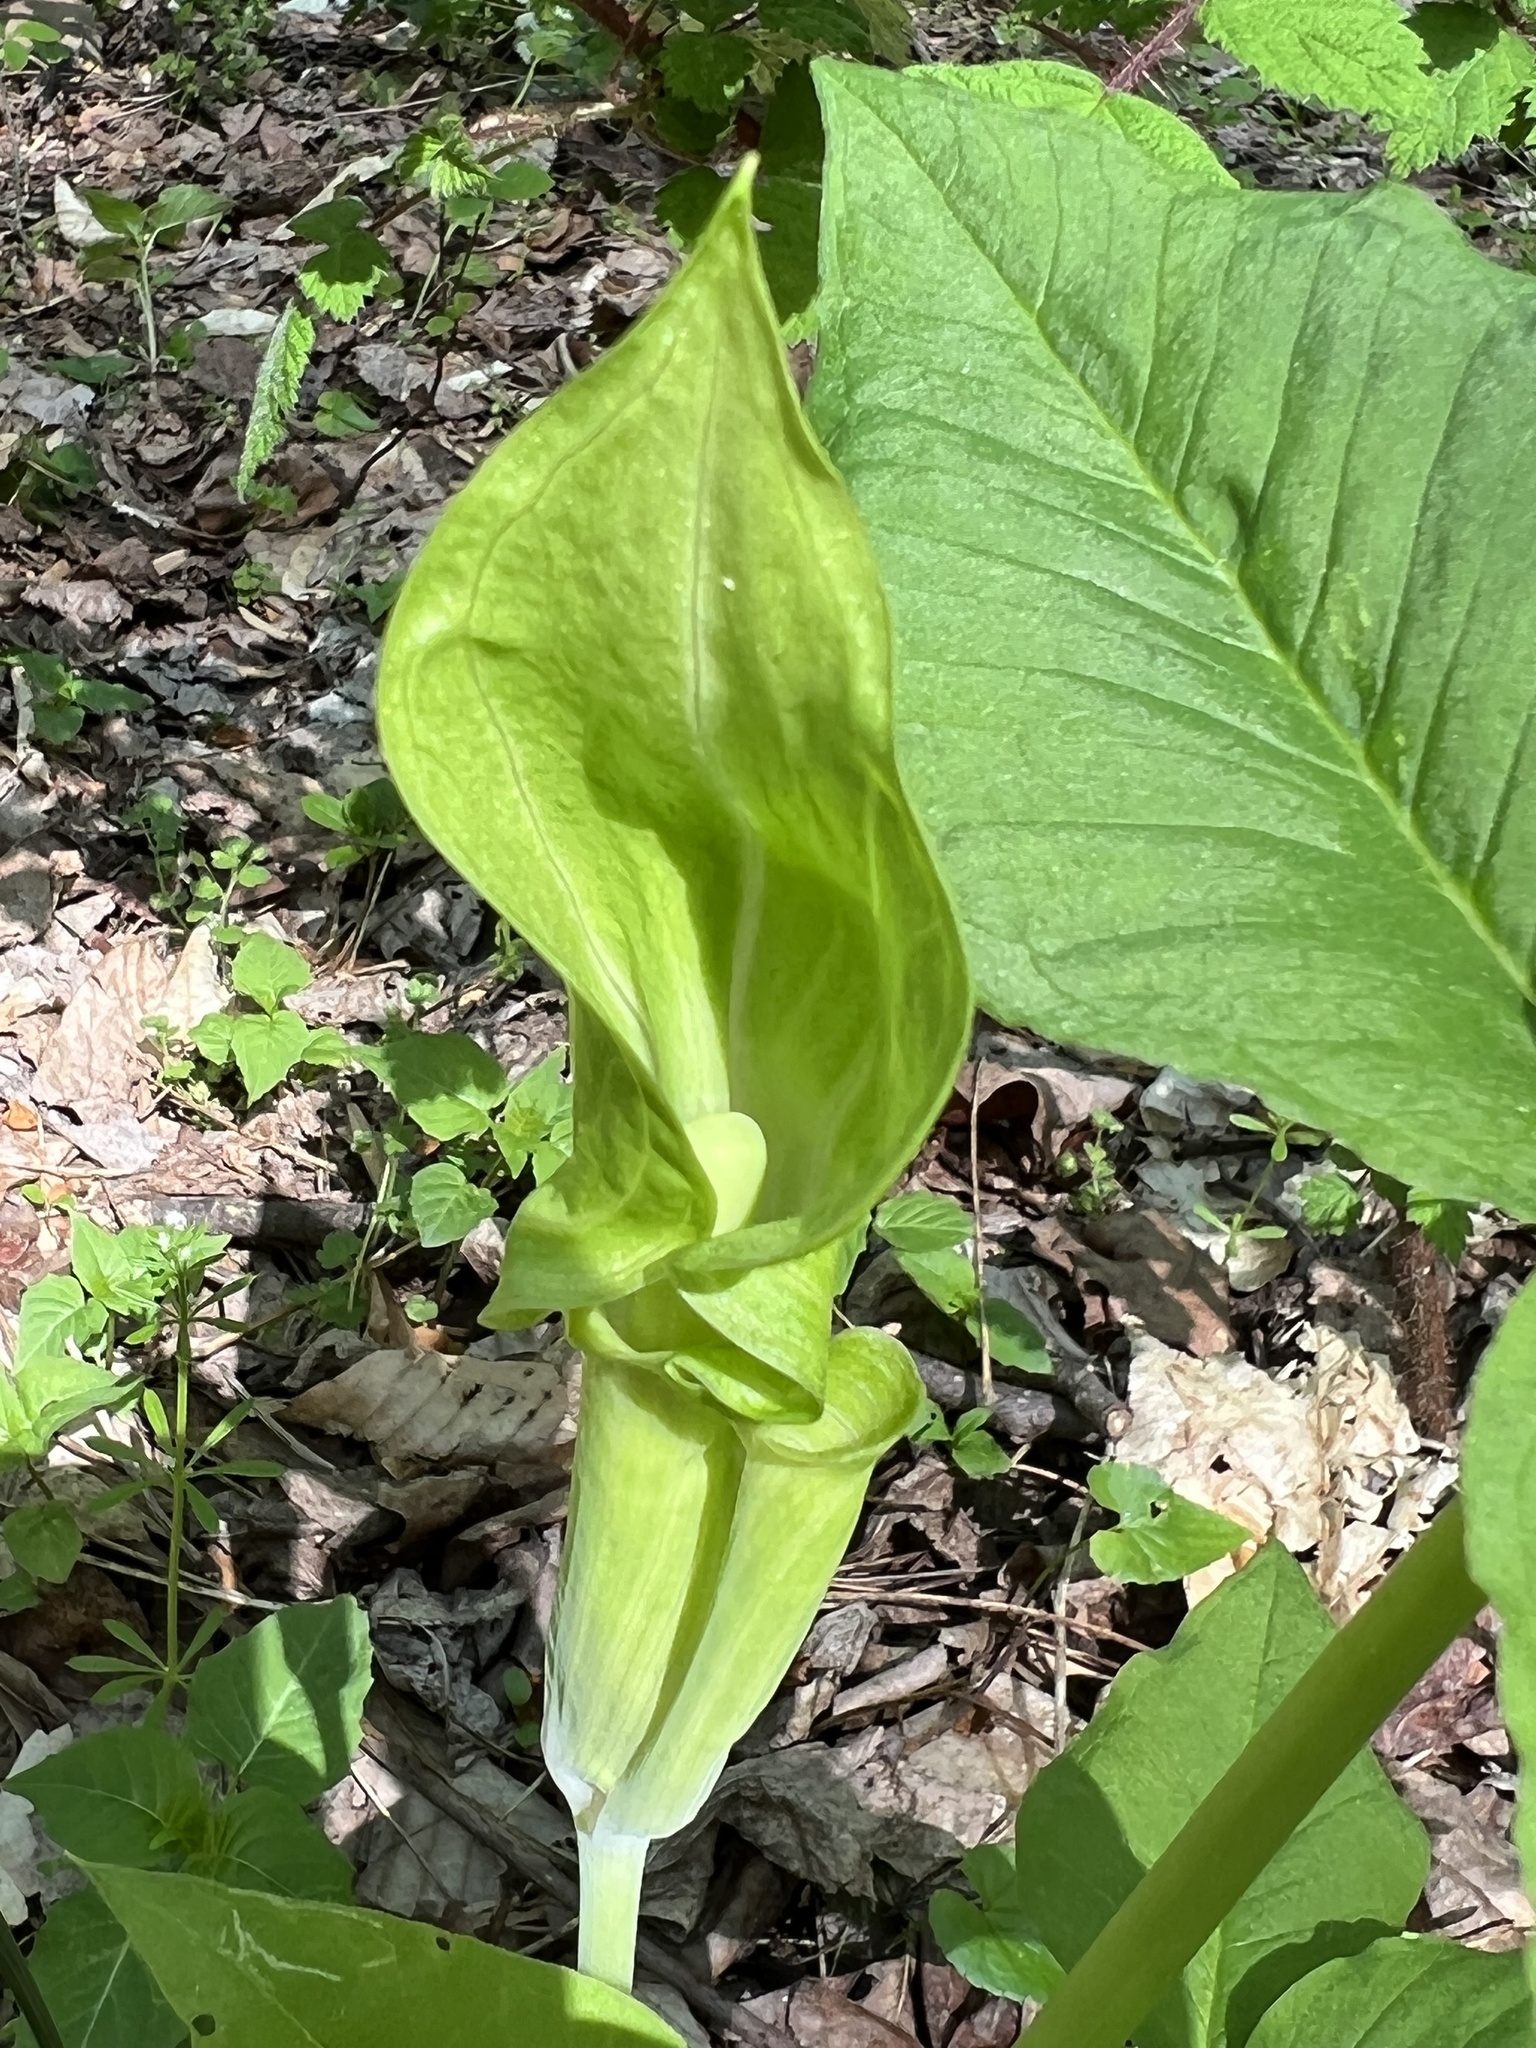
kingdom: Plantae
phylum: Tracheophyta
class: Liliopsida
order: Alismatales
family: Araceae
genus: Arisaema
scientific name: Arisaema triphyllum
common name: Jack-in-the-pulpit
